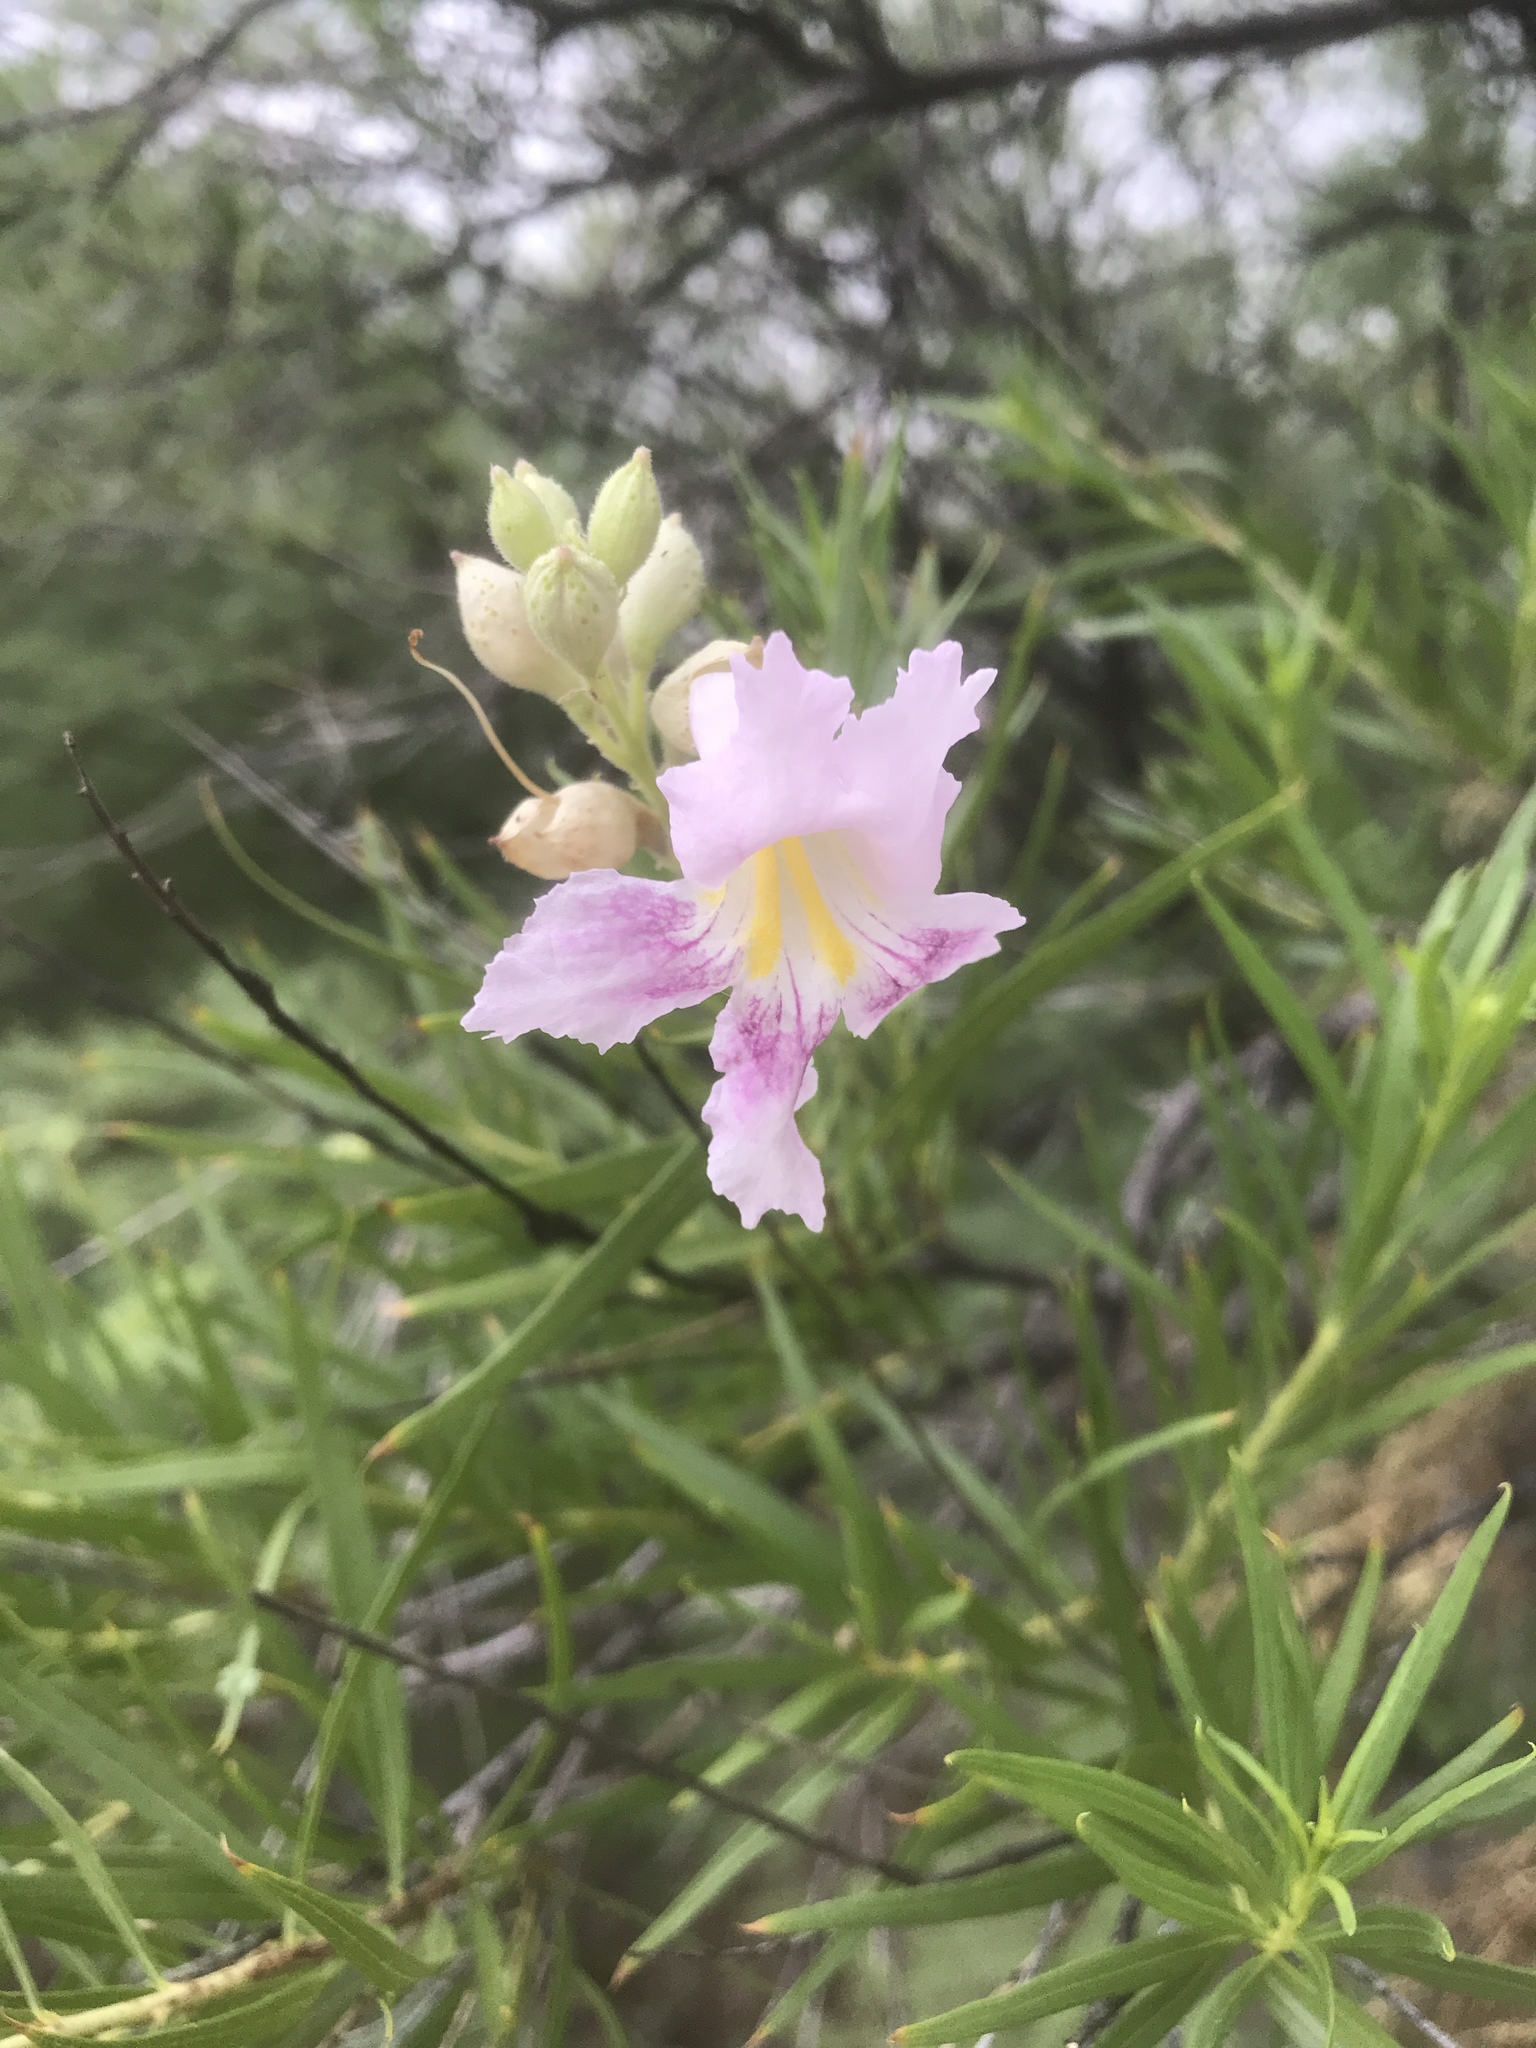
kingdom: Plantae
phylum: Tracheophyta
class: Magnoliopsida
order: Lamiales
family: Bignoniaceae
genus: Chilopsis
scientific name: Chilopsis linearis
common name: Desert-willow
